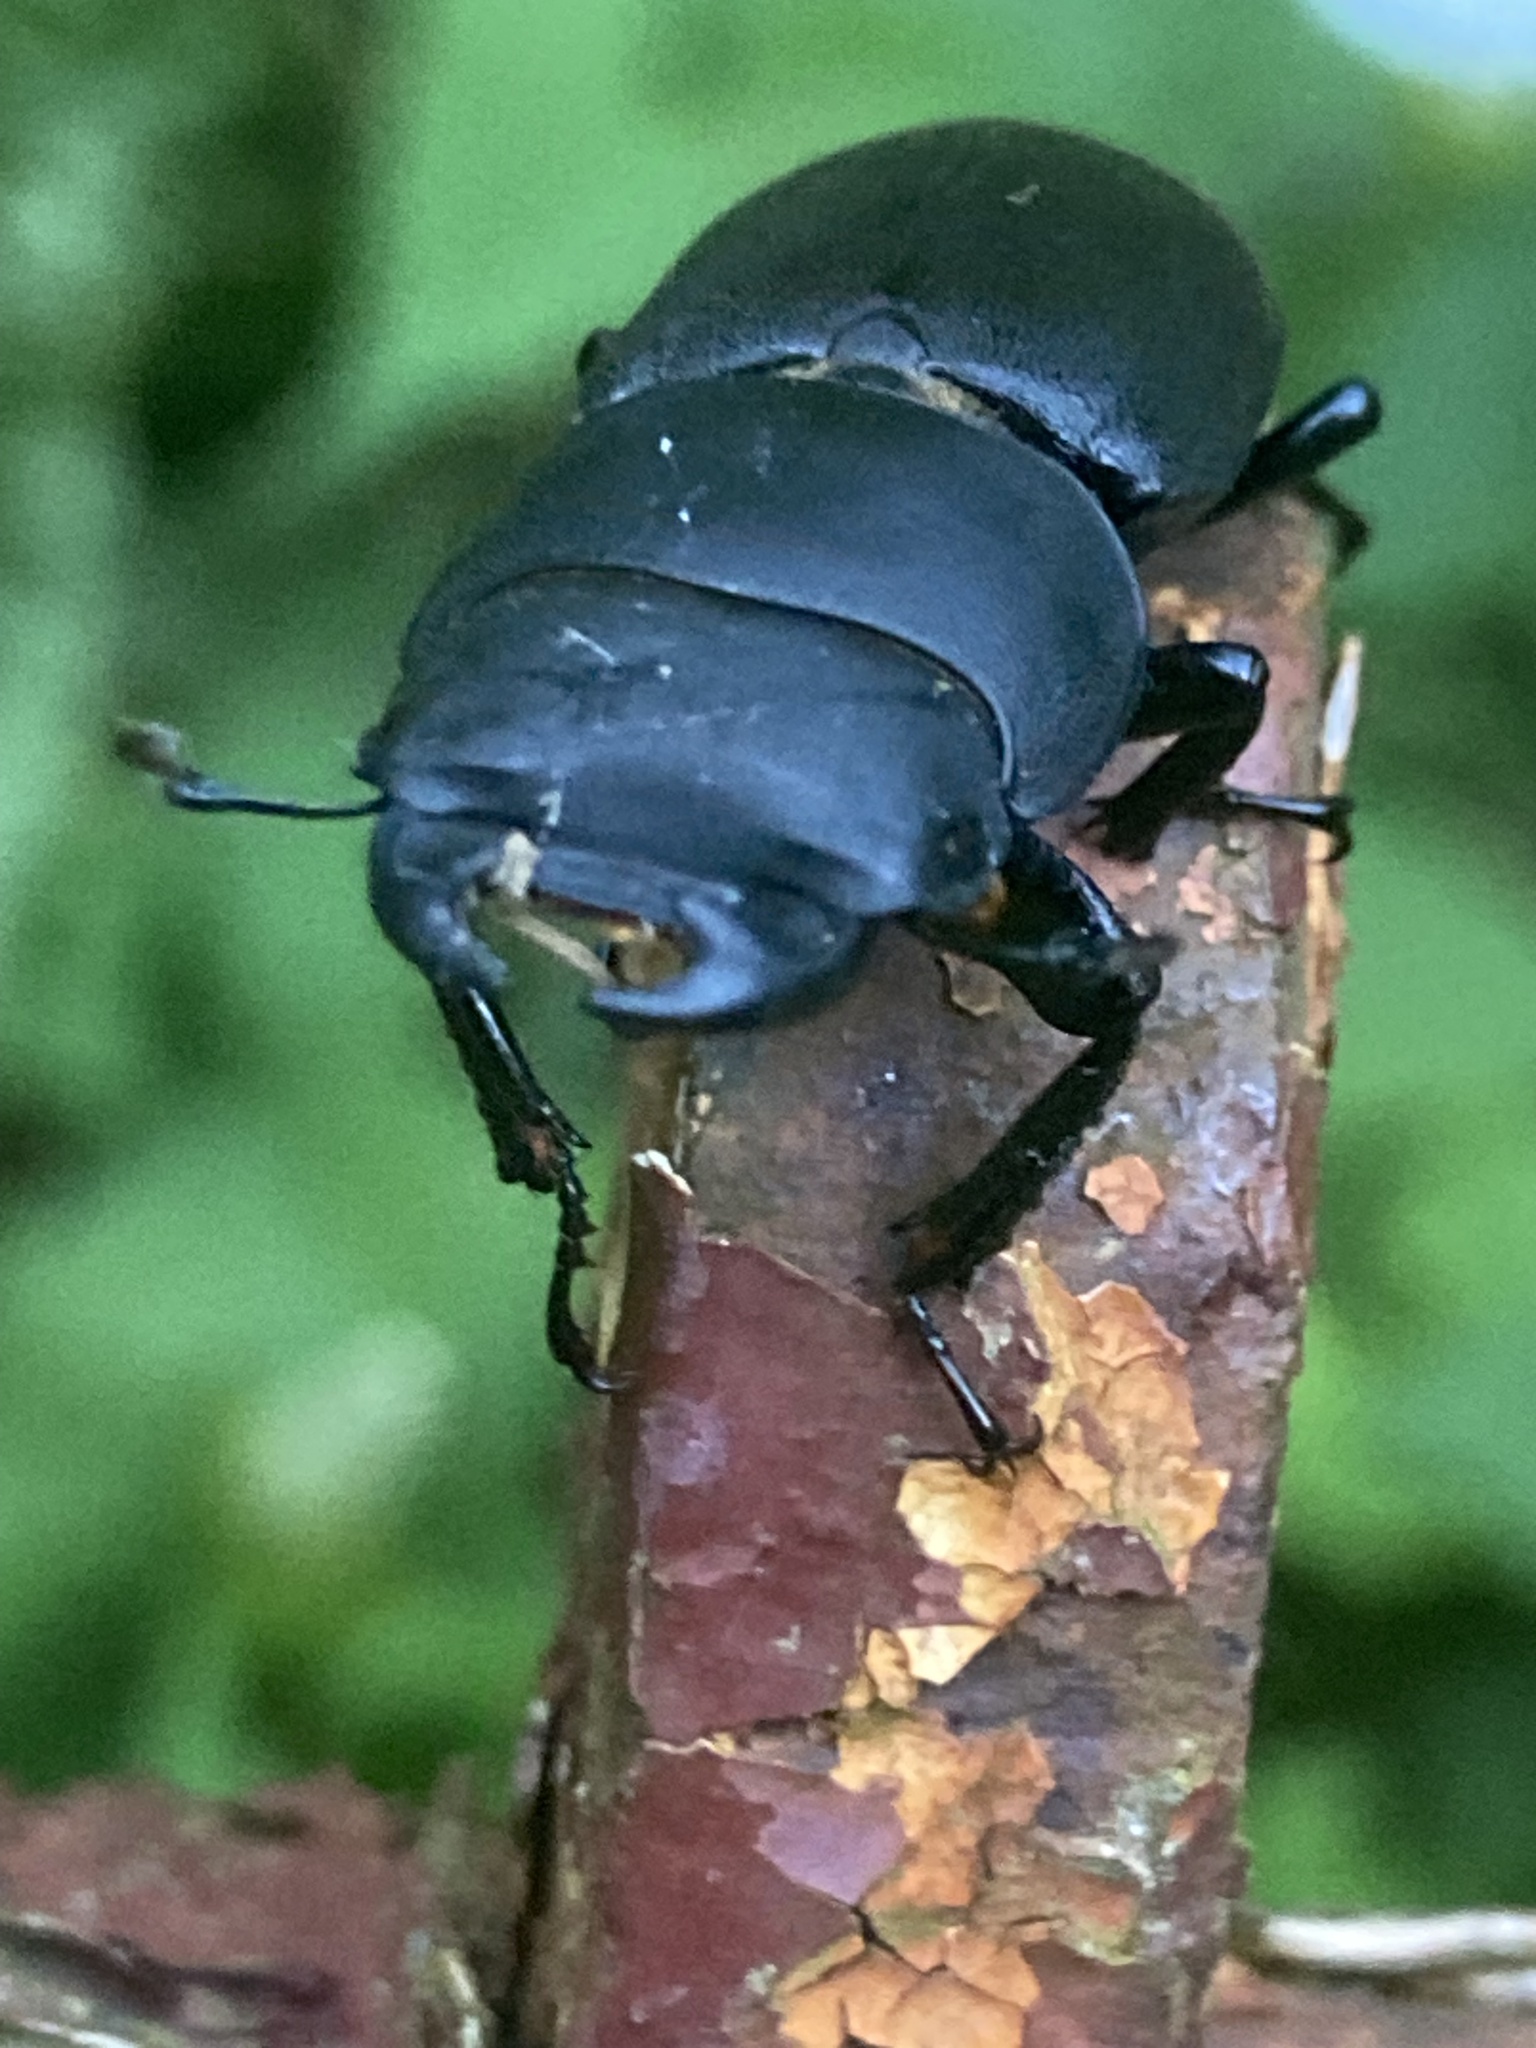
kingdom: Animalia
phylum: Arthropoda
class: Insecta
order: Coleoptera
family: Lucanidae
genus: Dorcus
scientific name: Dorcus parallelipipedus
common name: Lesser stag beetle
